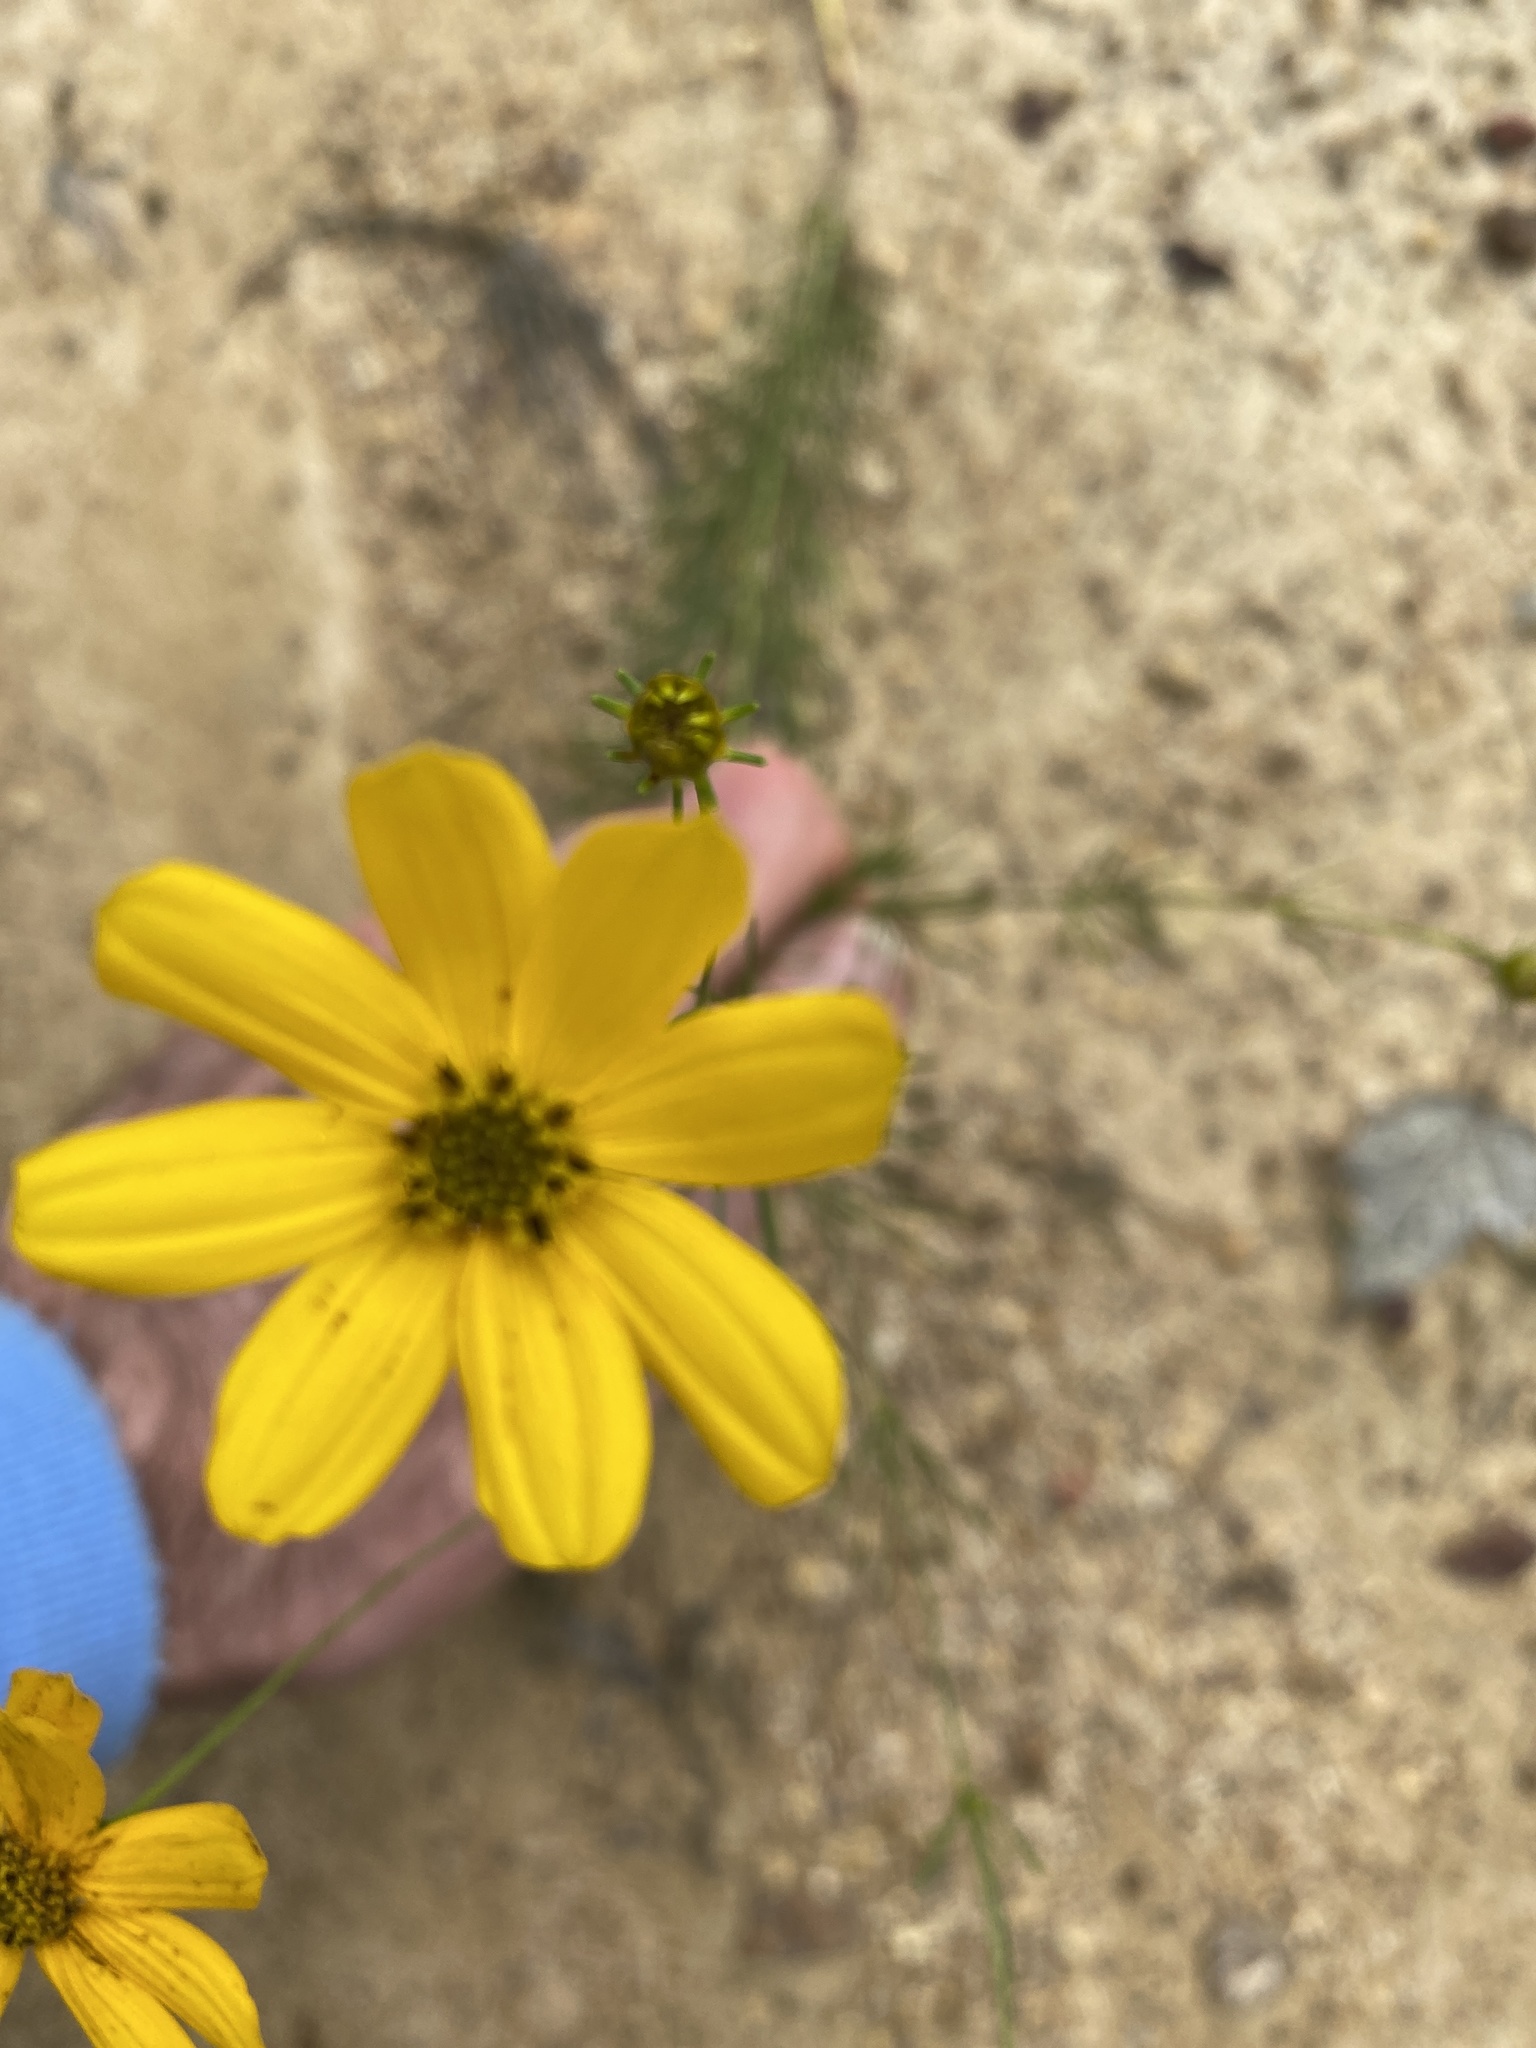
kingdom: Plantae
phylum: Tracheophyta
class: Magnoliopsida
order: Asterales
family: Asteraceae
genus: Coreopsis
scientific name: Coreopsis verticillata
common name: Whorled tickseed
